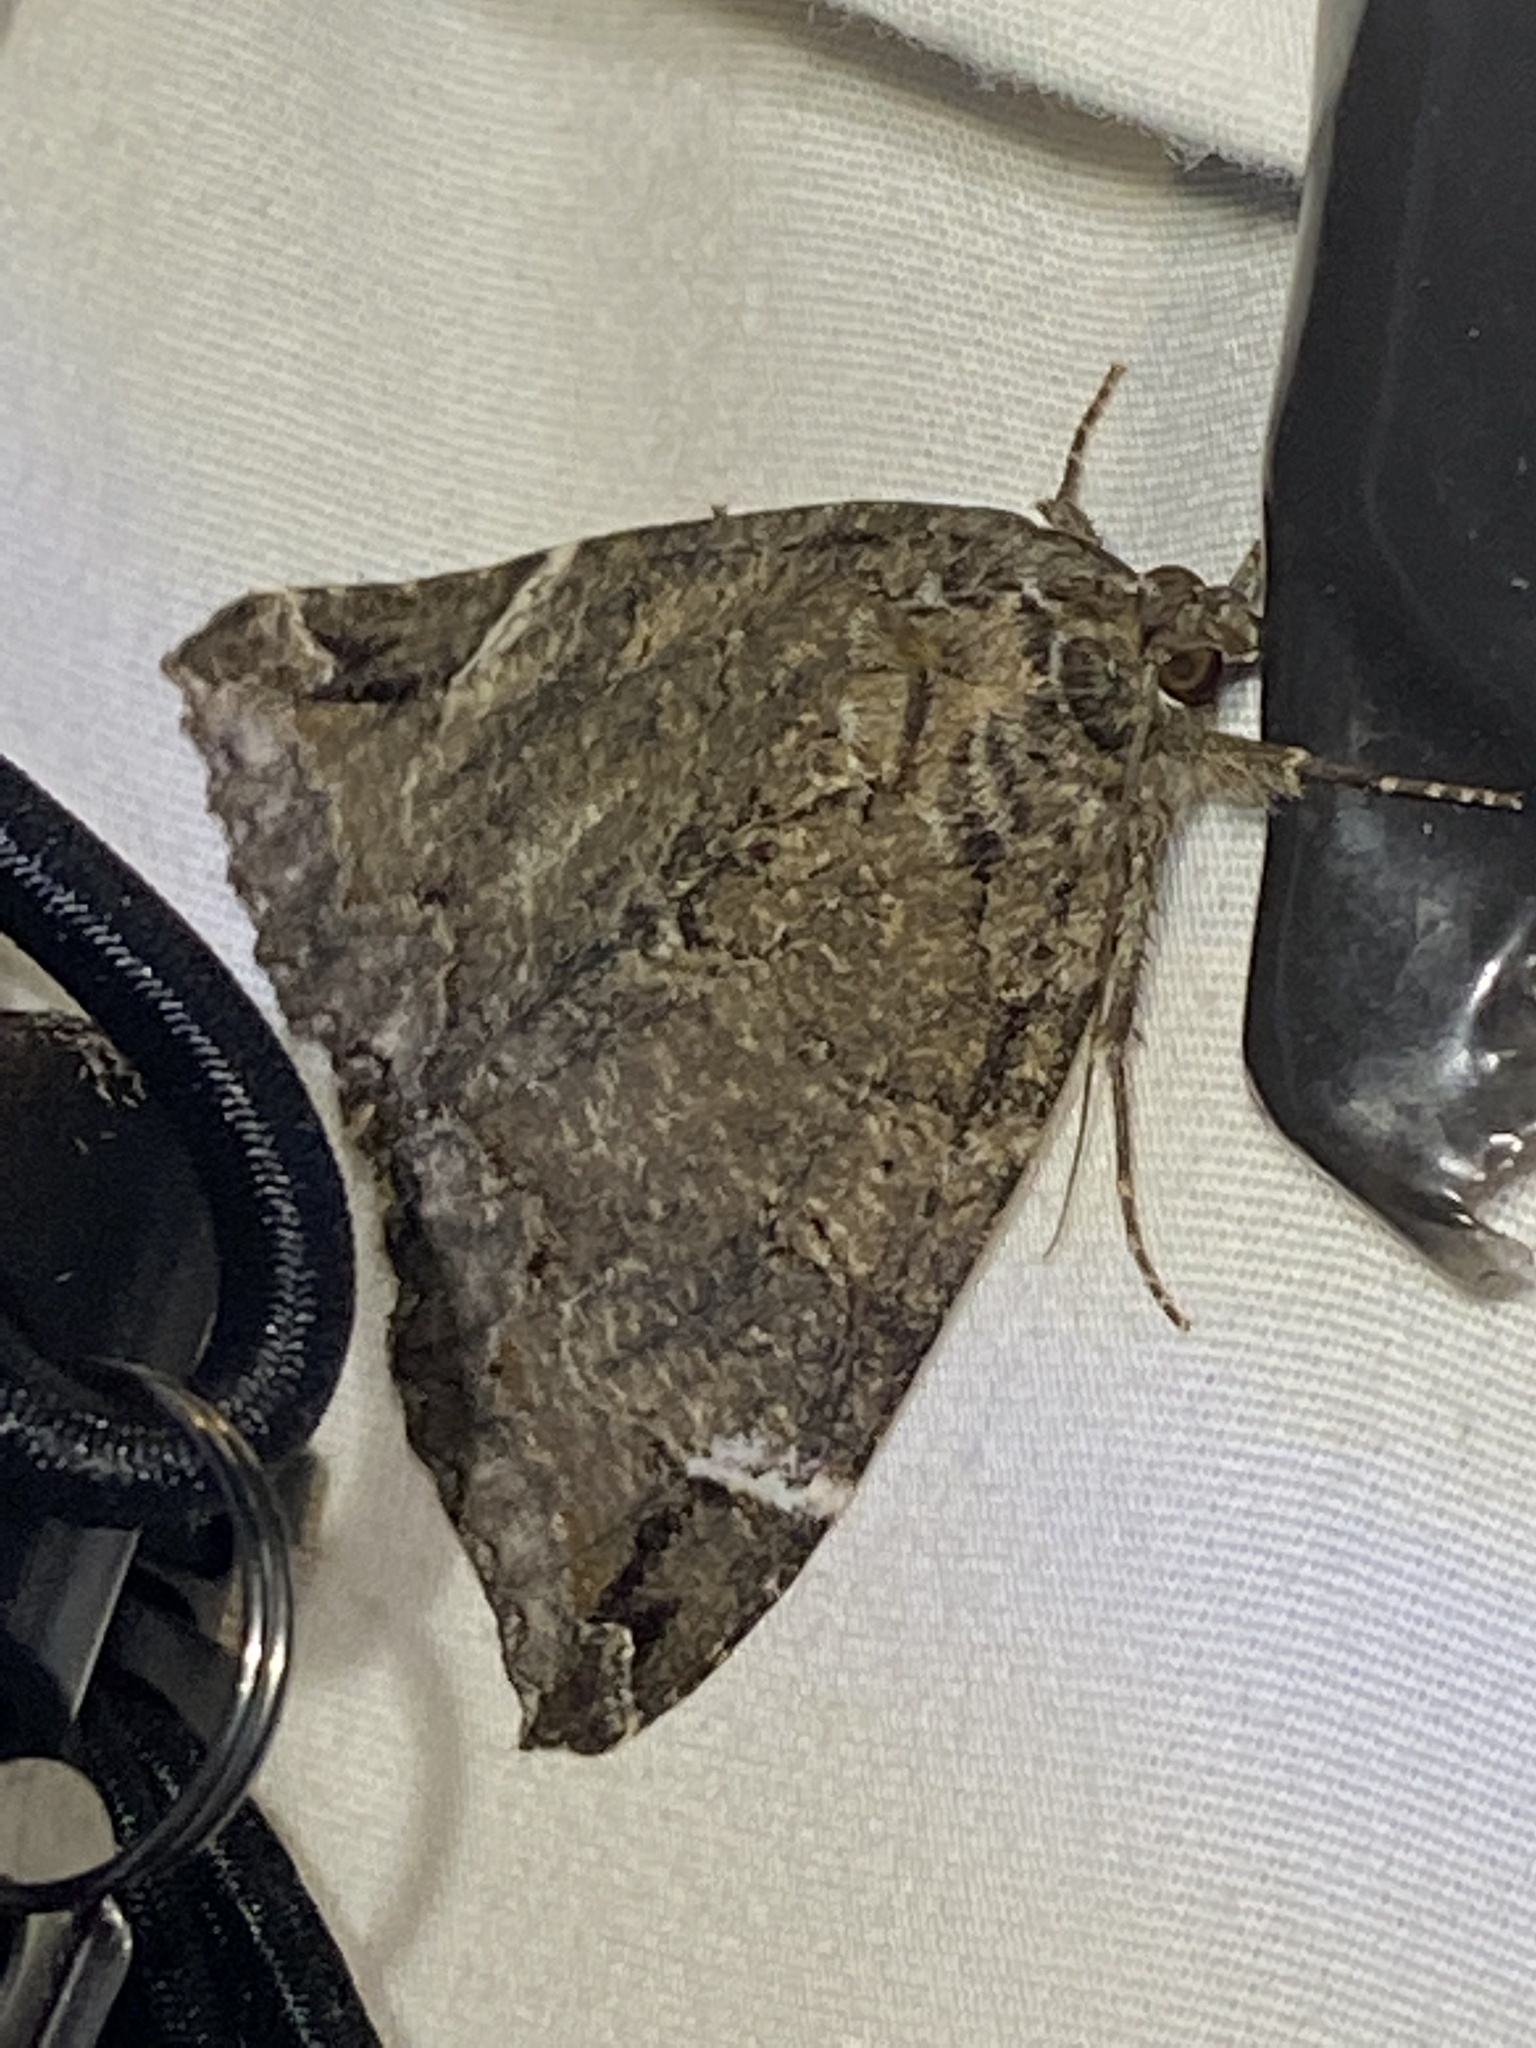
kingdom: Animalia
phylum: Arthropoda
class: Insecta
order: Lepidoptera
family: Erebidae
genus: Euparthenos
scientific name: Euparthenos nubilis
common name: Locust underwing
